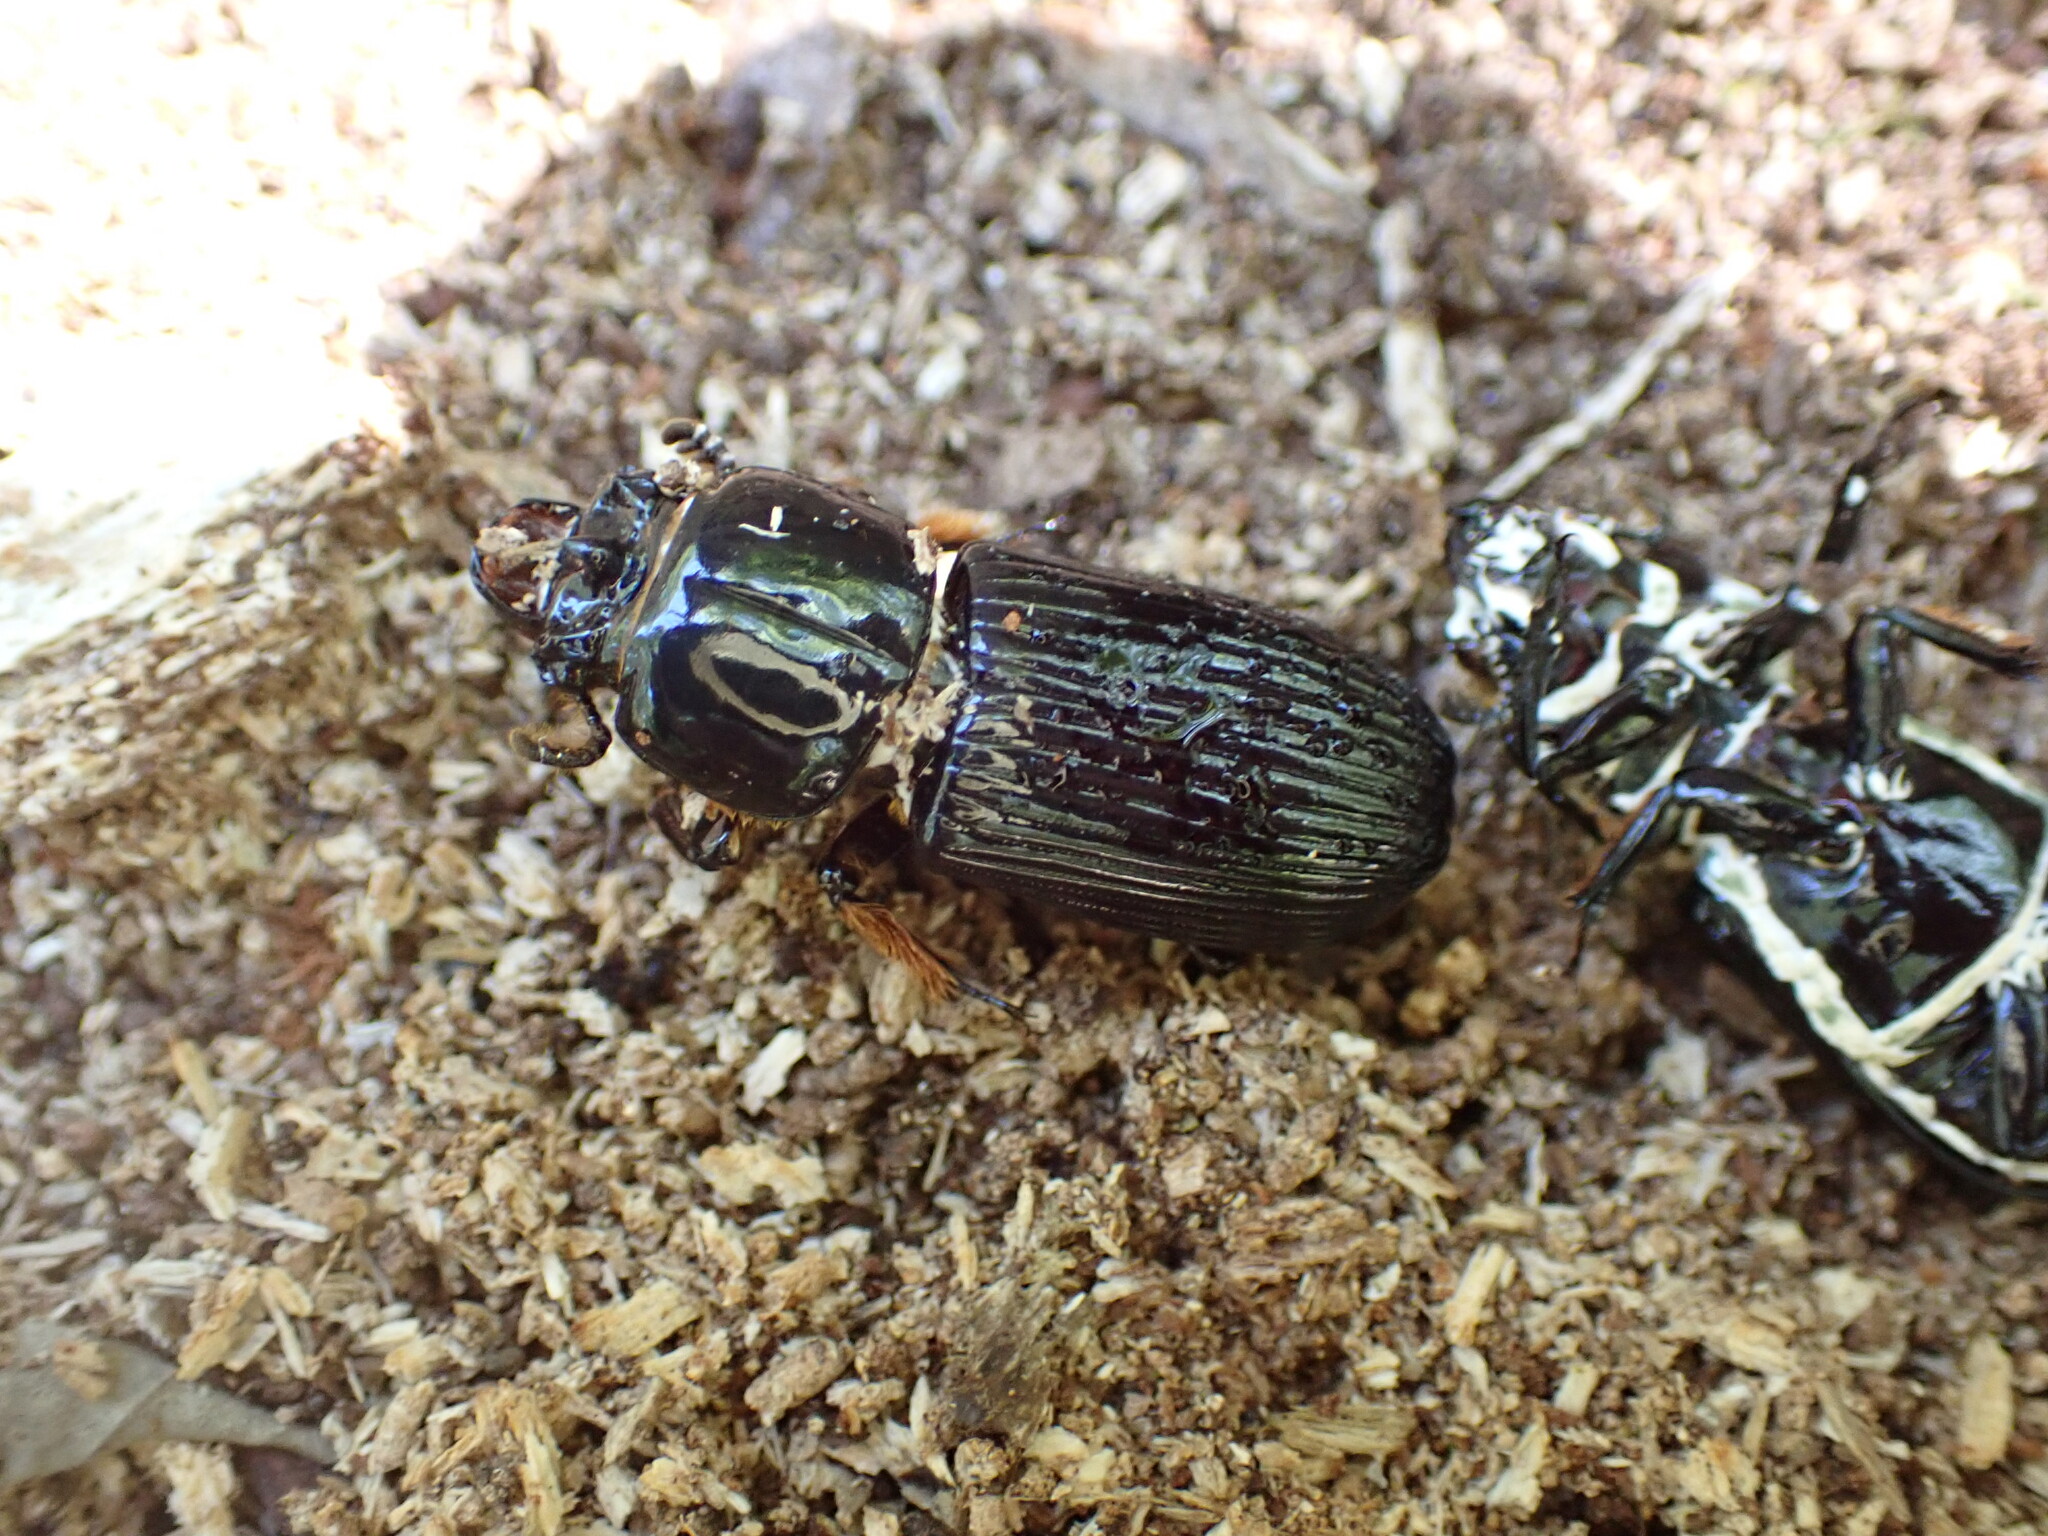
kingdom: Animalia
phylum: Arthropoda
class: Insecta
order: Coleoptera
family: Passalidae
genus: Odontotaenius
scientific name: Odontotaenius disjunctus
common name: Patent leather beetle
